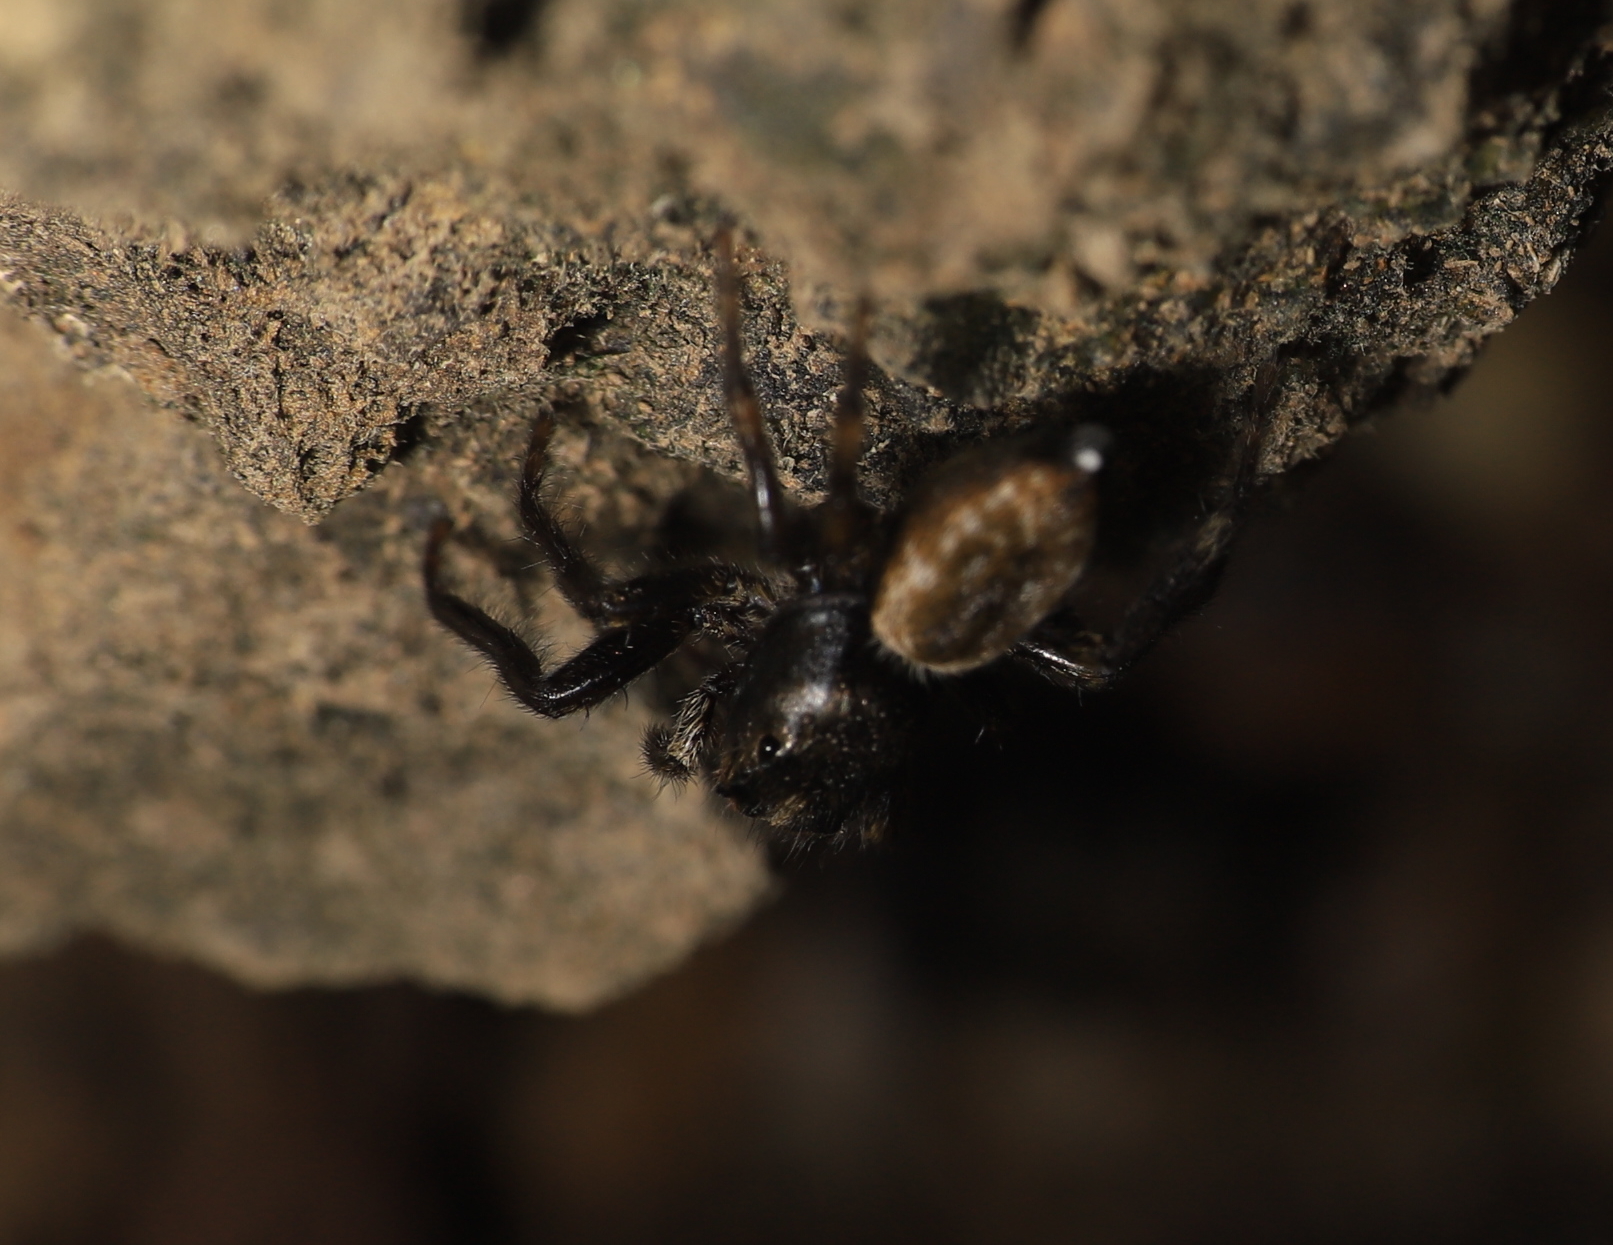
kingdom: Animalia
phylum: Arthropoda
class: Arachnida
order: Araneae
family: Salticidae
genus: Hakka
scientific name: Hakka himeshimensis
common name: Jumping spider
